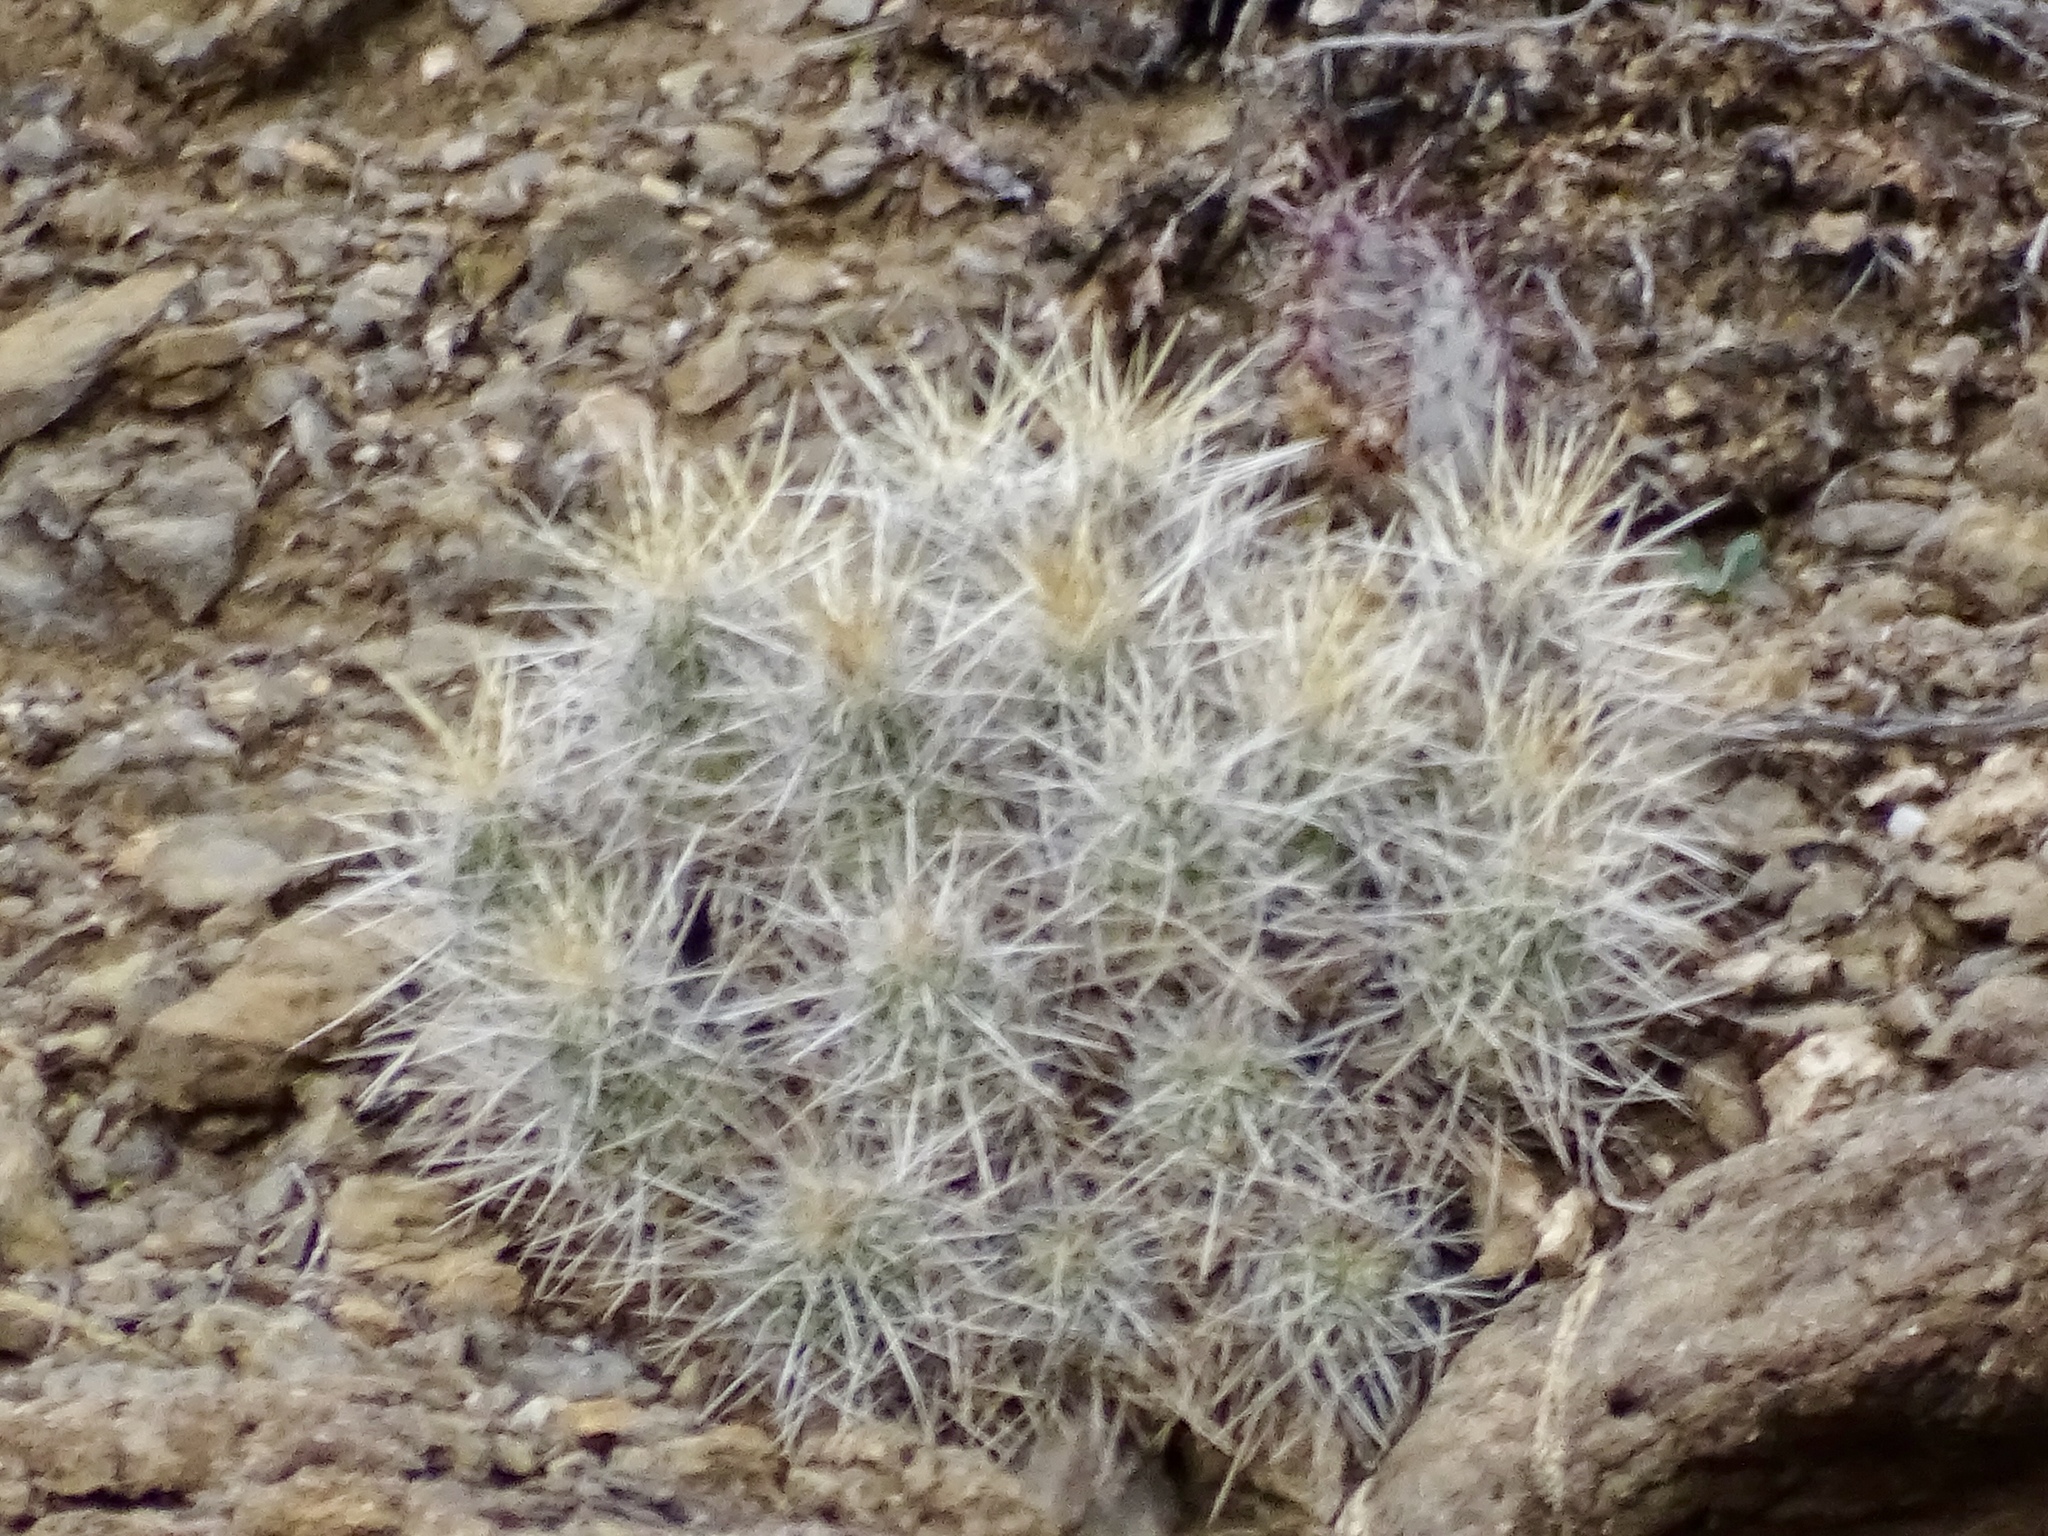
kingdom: Plantae
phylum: Tracheophyta
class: Magnoliopsida
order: Caryophyllales
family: Cactaceae
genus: Echinocereus
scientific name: Echinocereus stramineus
